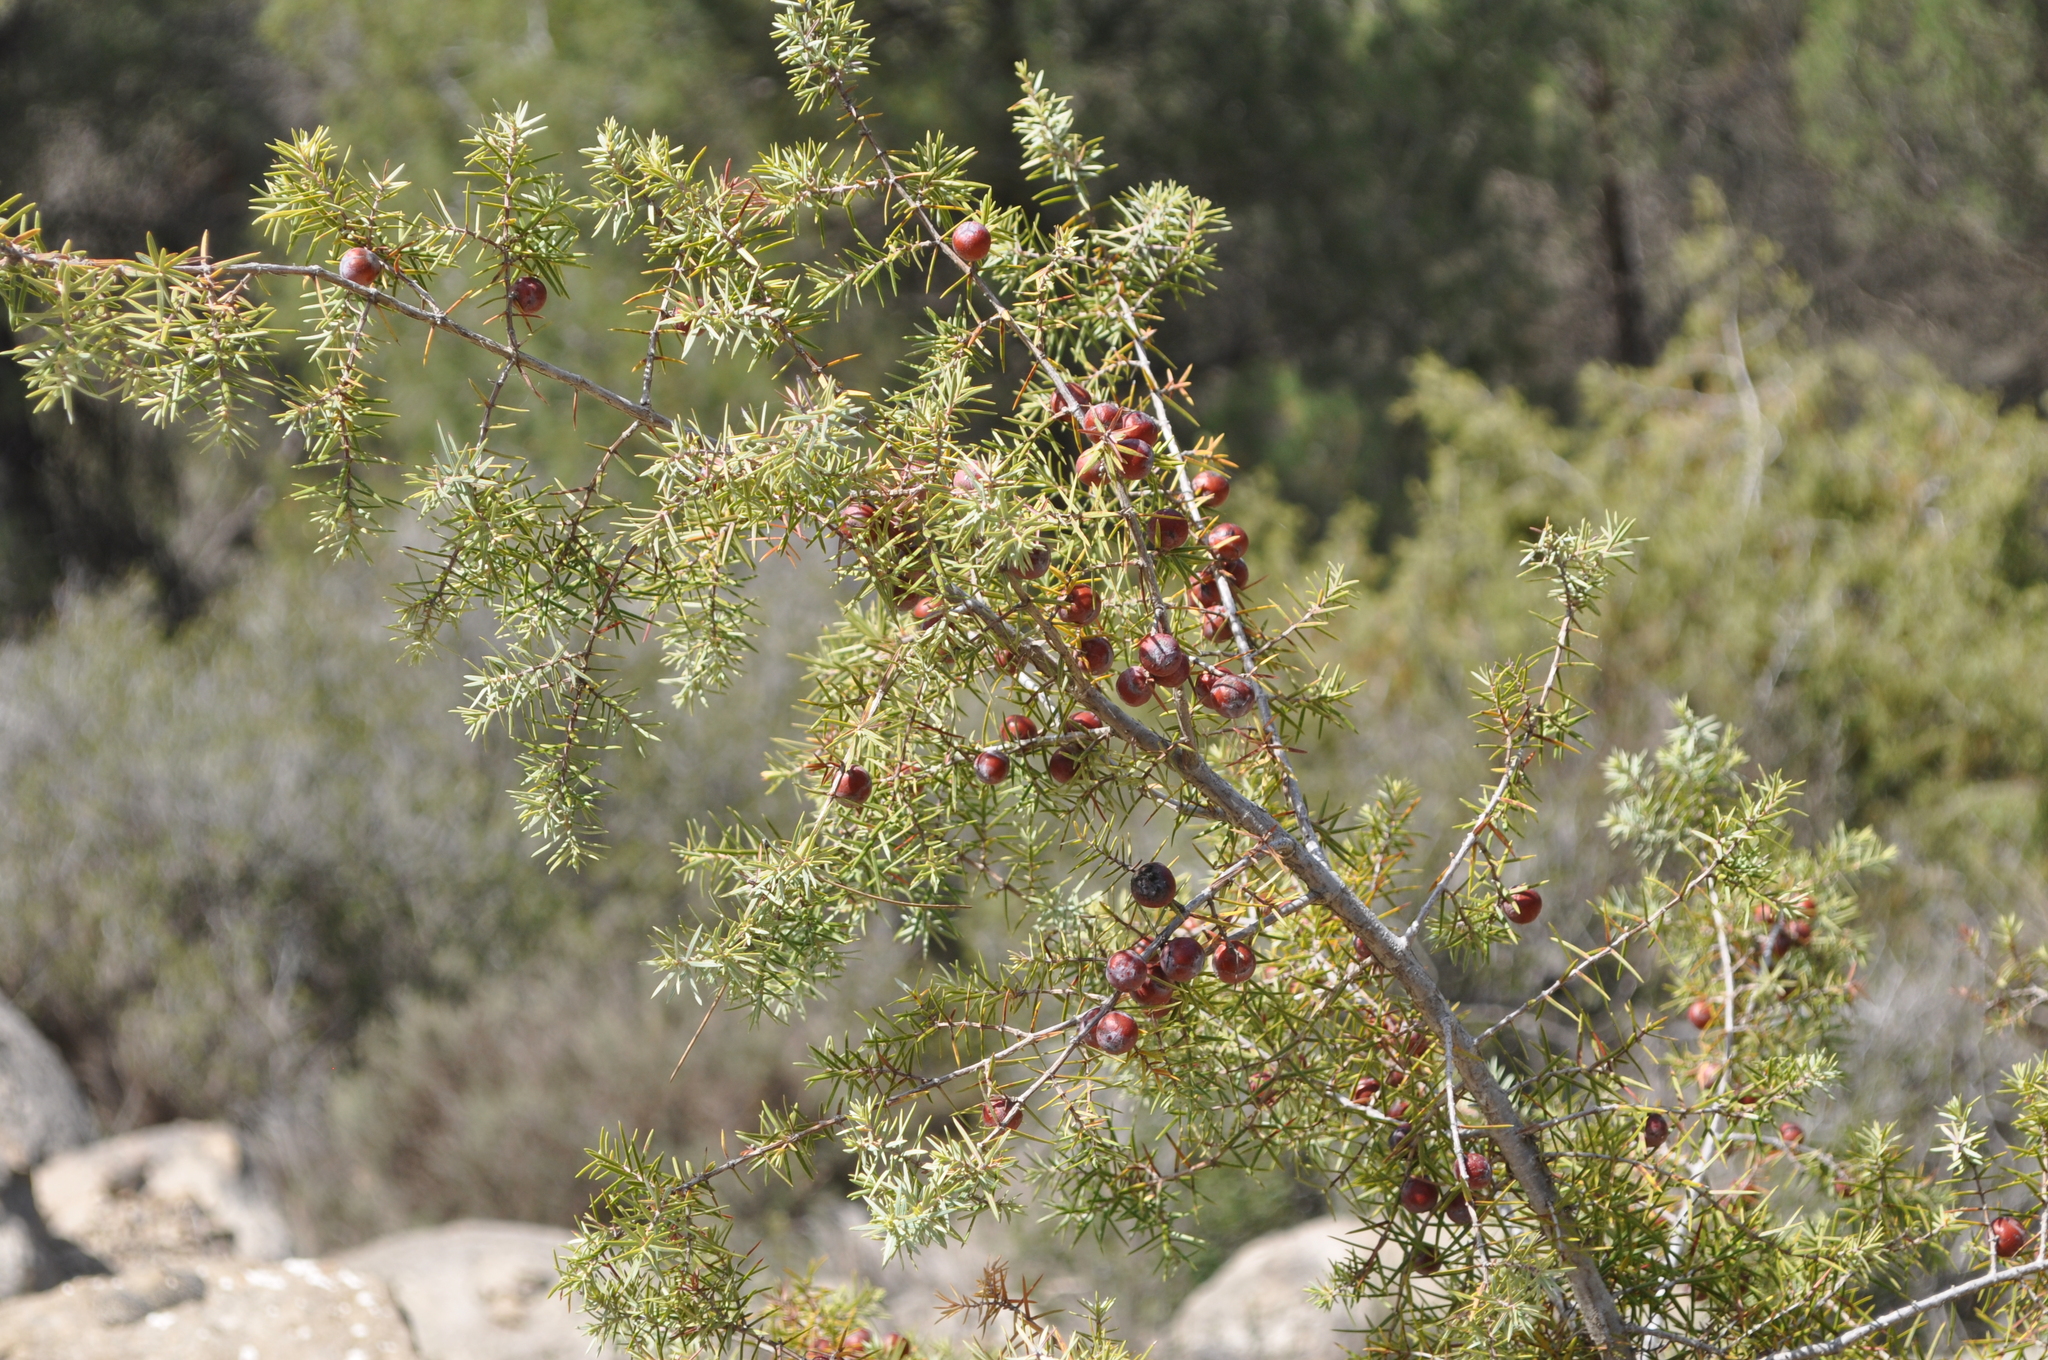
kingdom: Plantae
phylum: Tracheophyta
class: Pinopsida
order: Pinales
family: Cupressaceae
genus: Juniperus
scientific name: Juniperus oxycedrus
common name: Prickly juniper
